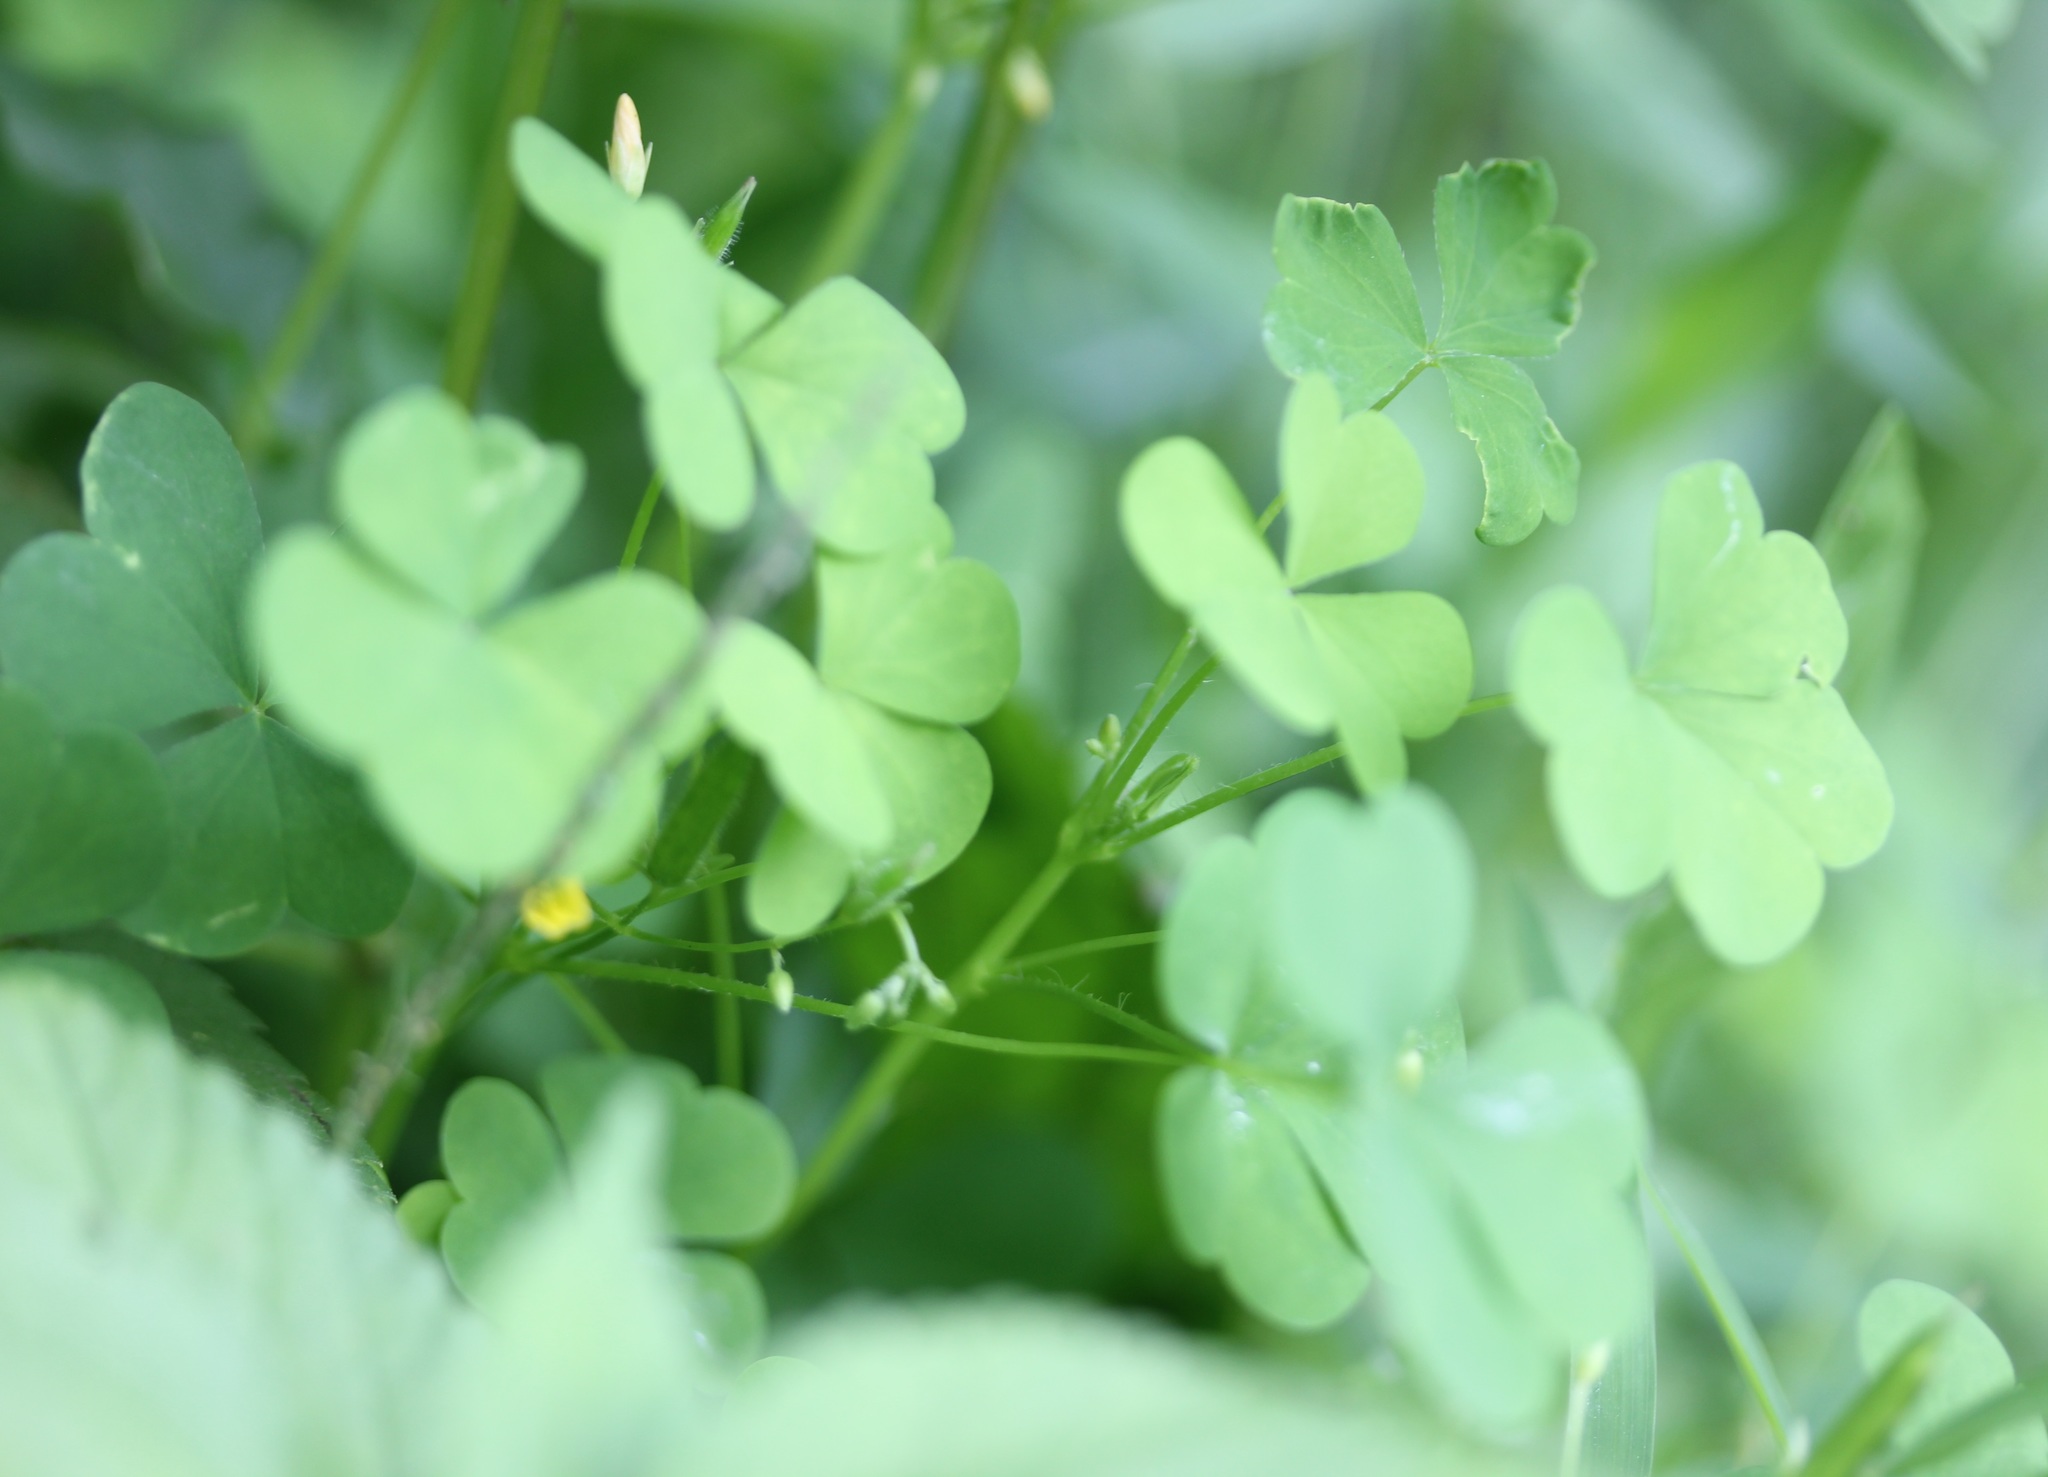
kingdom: Plantae
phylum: Tracheophyta
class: Magnoliopsida
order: Oxalidales
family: Oxalidaceae
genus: Oxalis
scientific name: Oxalis stricta
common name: Upright yellow-sorrel
